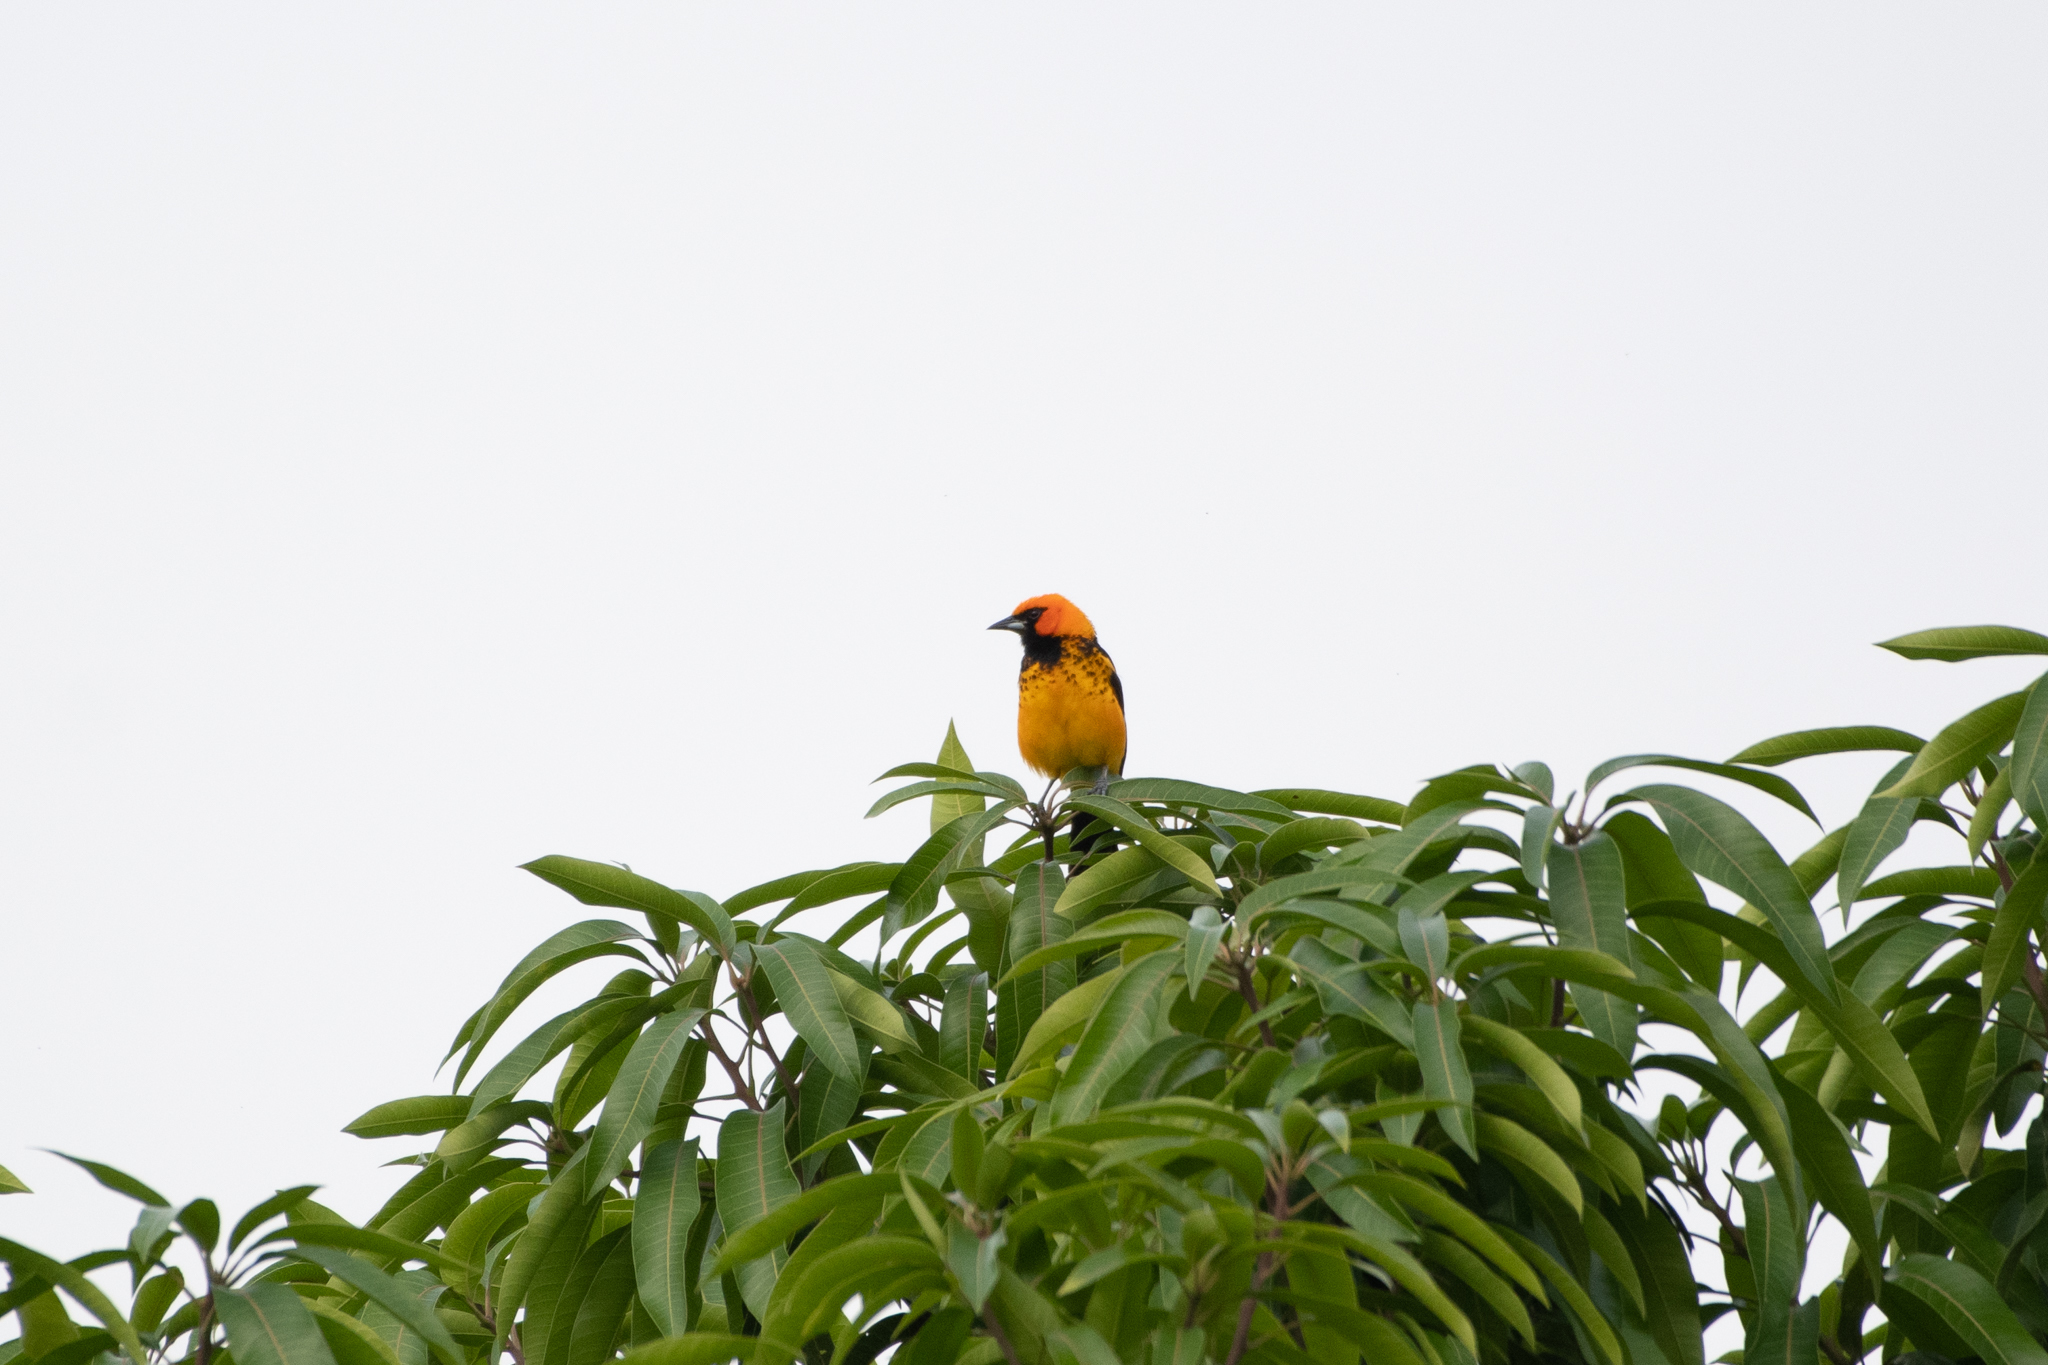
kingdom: Animalia
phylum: Chordata
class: Aves
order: Passeriformes
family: Icteridae
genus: Icterus
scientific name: Icterus pectoralis
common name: Spot-breasted oriole
